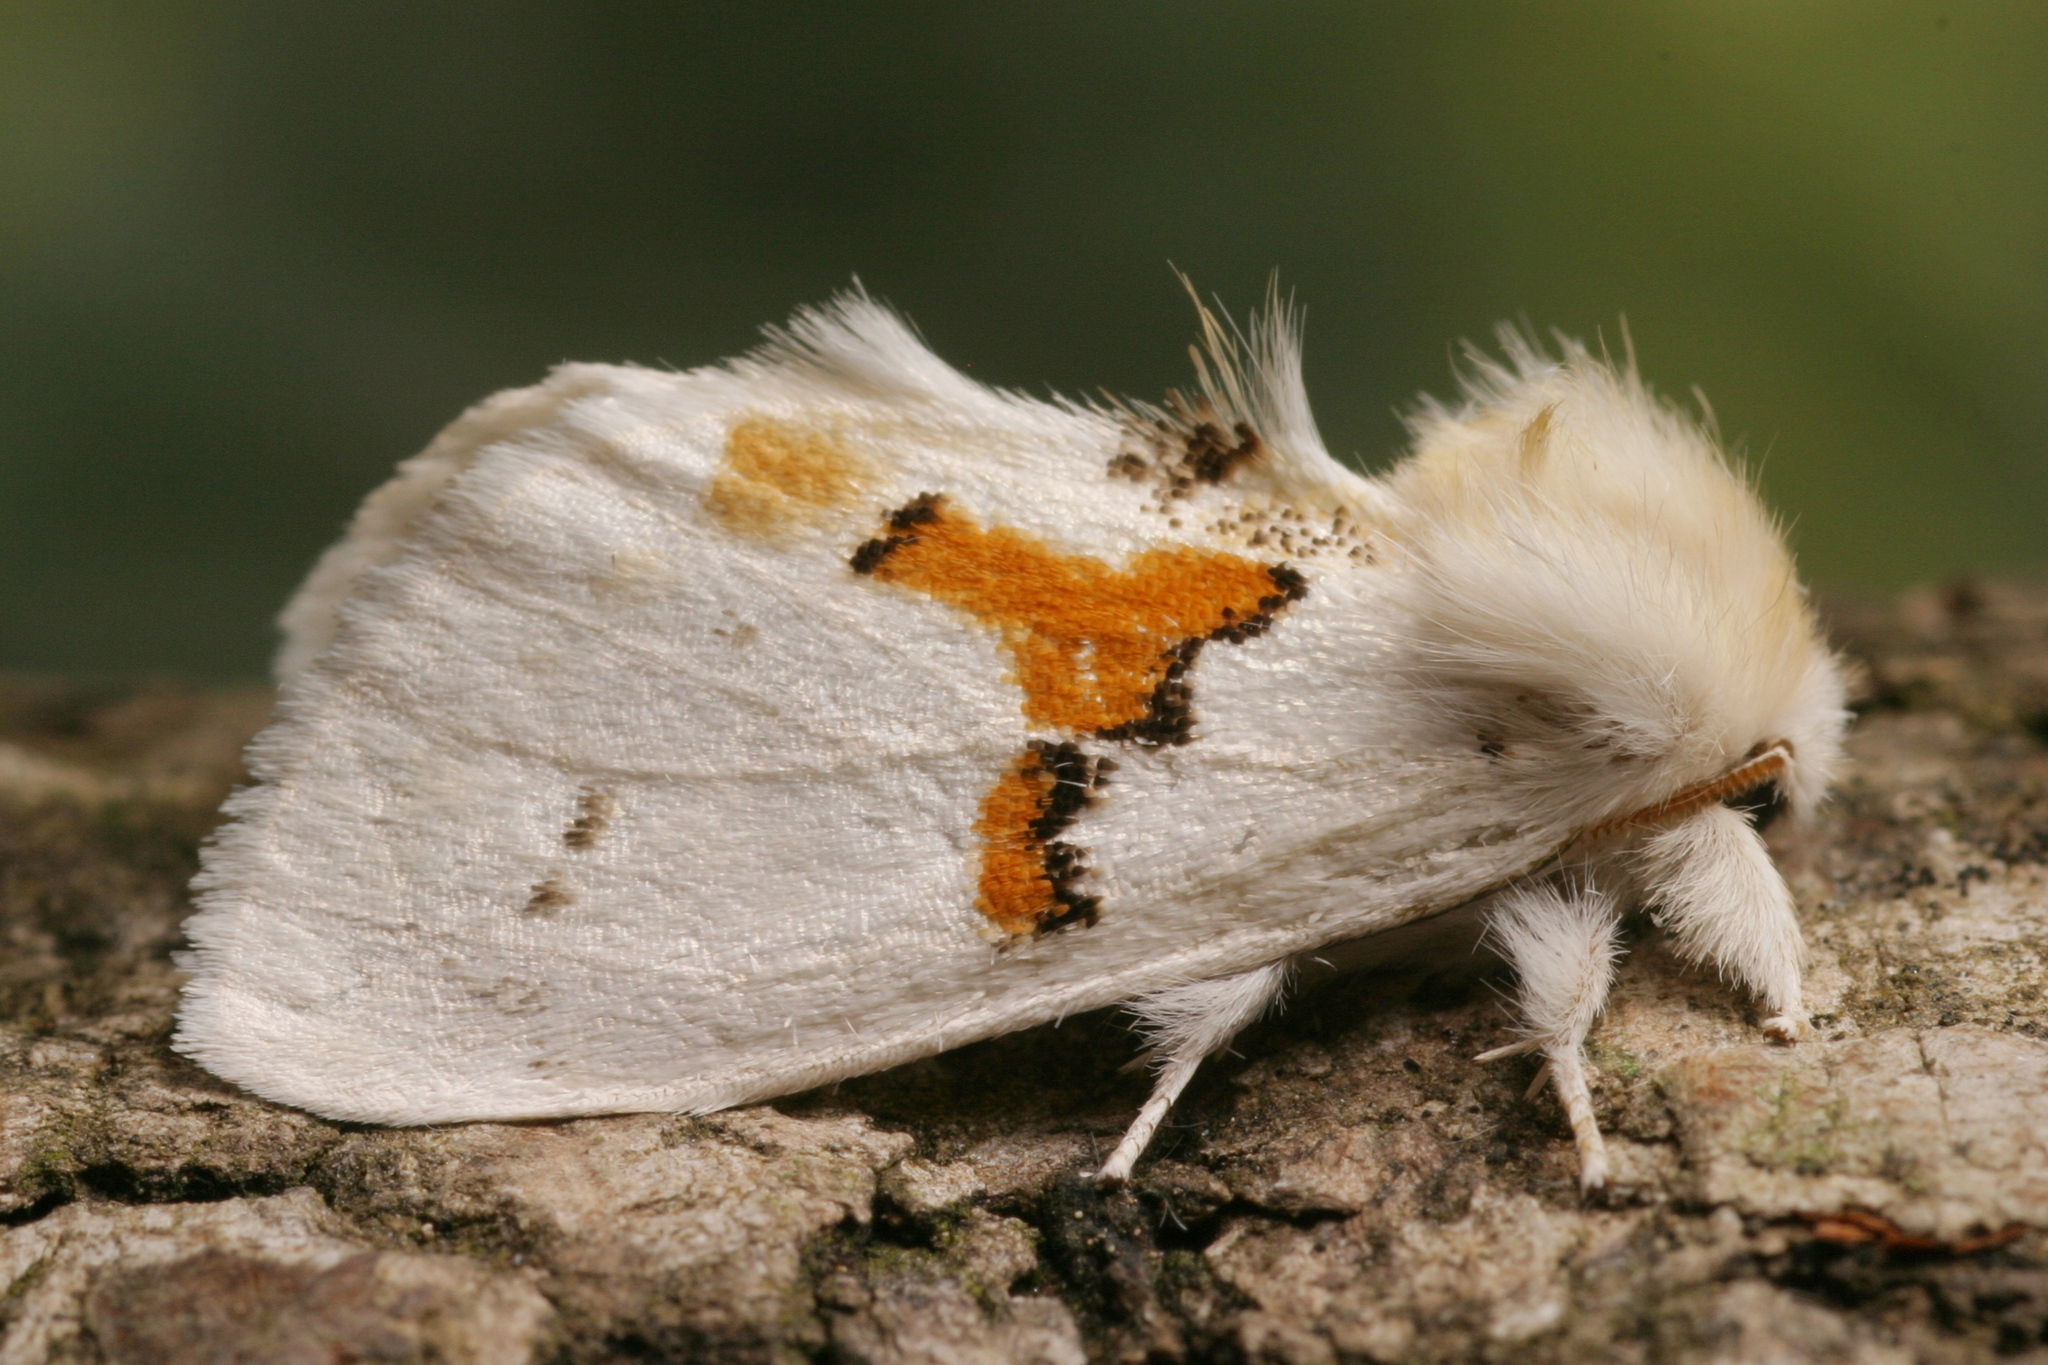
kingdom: Animalia
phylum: Arthropoda
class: Insecta
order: Lepidoptera
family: Notodontidae
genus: Leucodonta
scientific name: Leucodonta bicoloria
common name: White prominent
